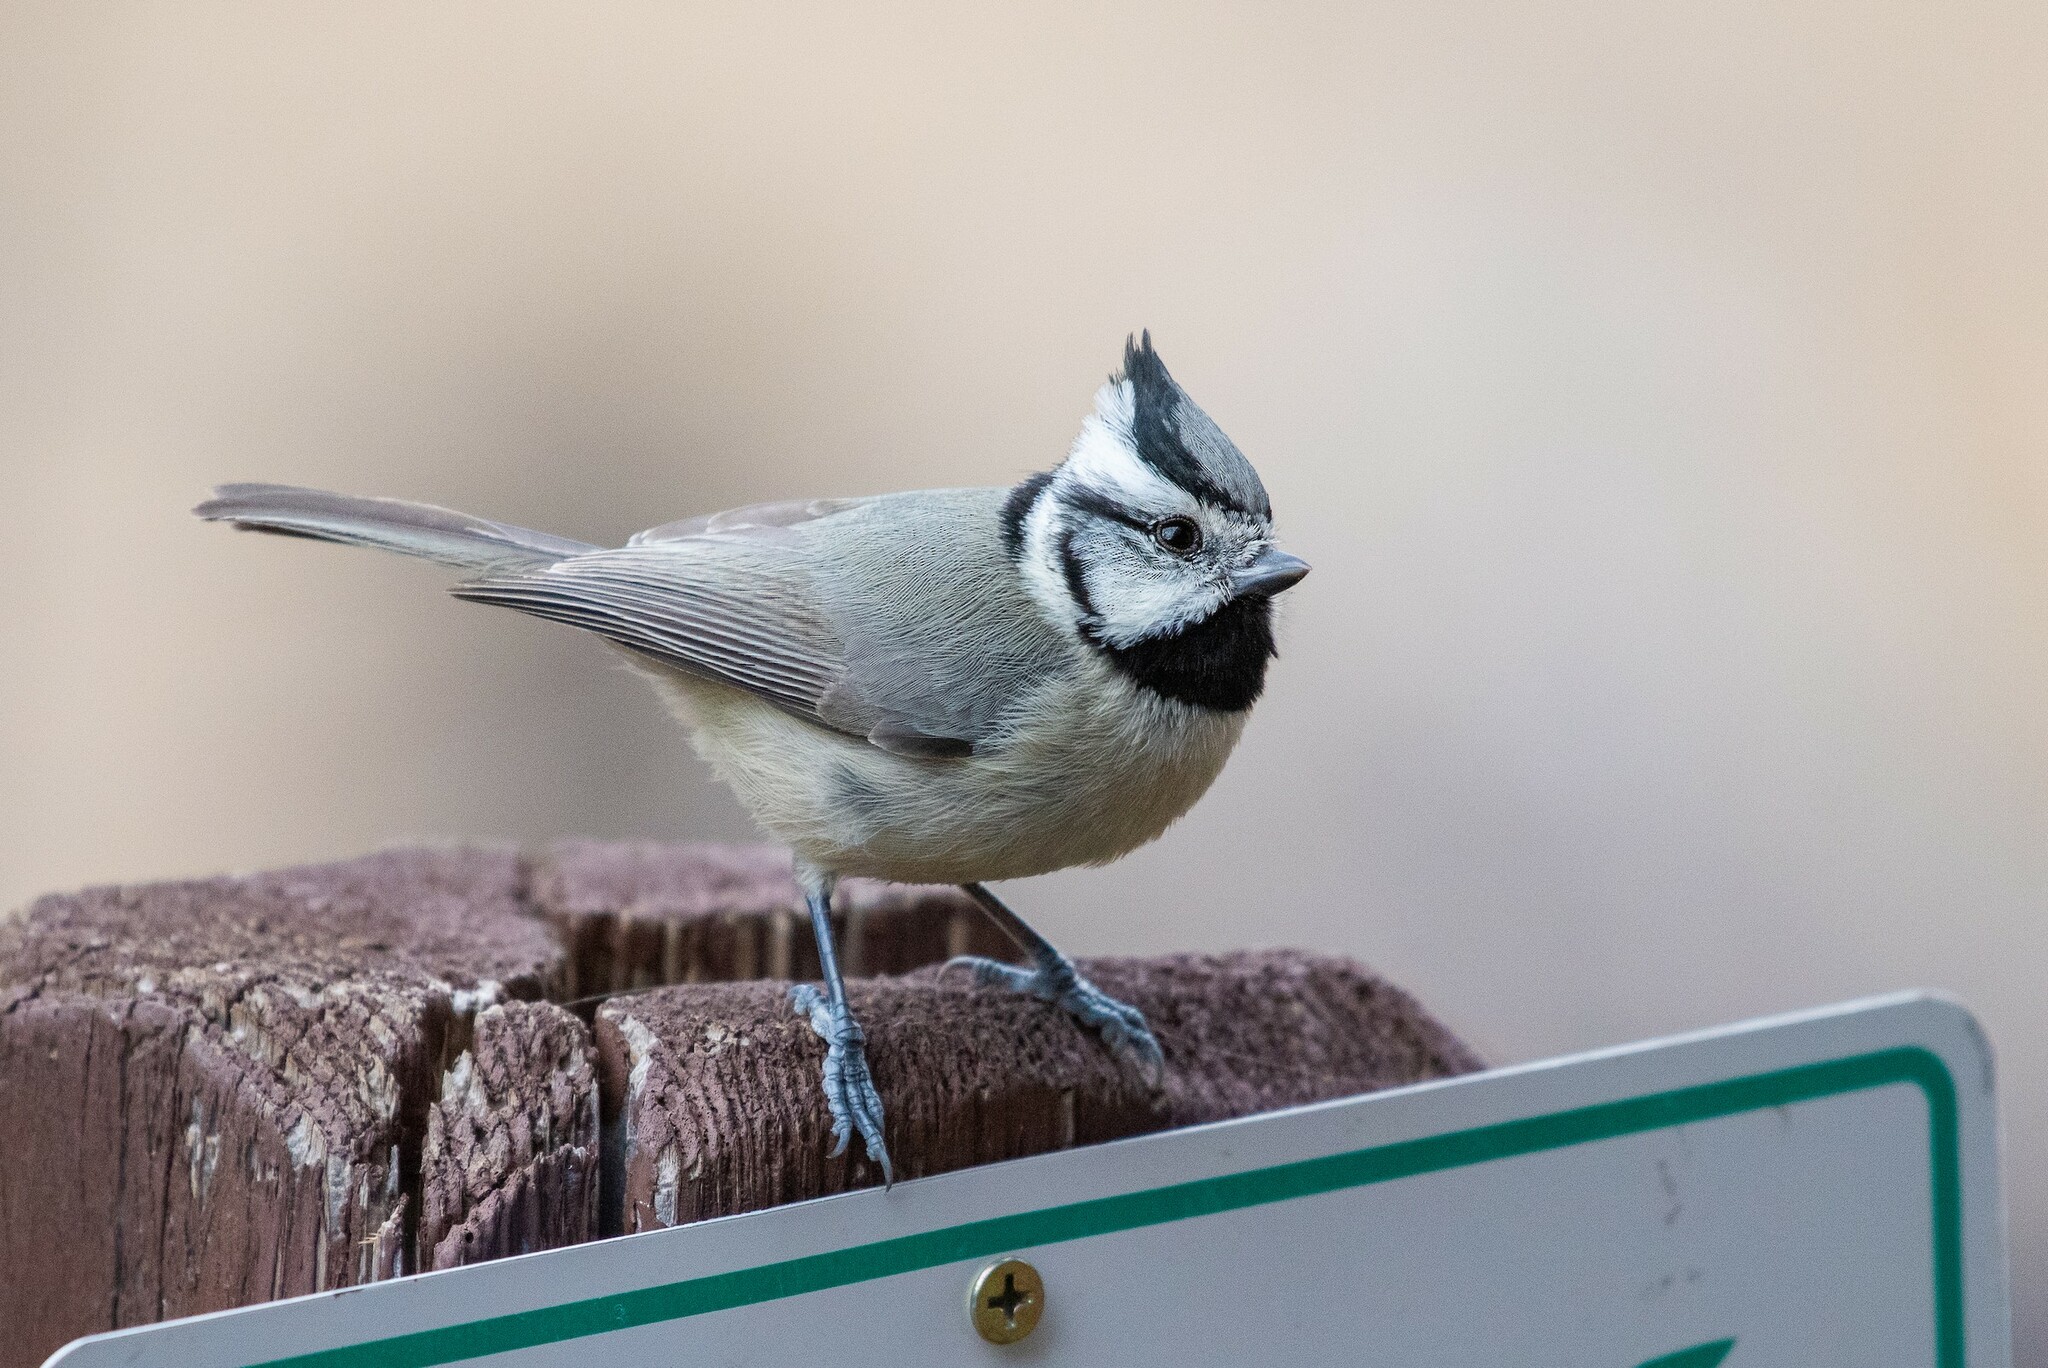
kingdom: Animalia
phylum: Chordata
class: Aves
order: Passeriformes
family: Paridae
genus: Baeolophus
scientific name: Baeolophus wollweberi
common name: Bridled titmouse
